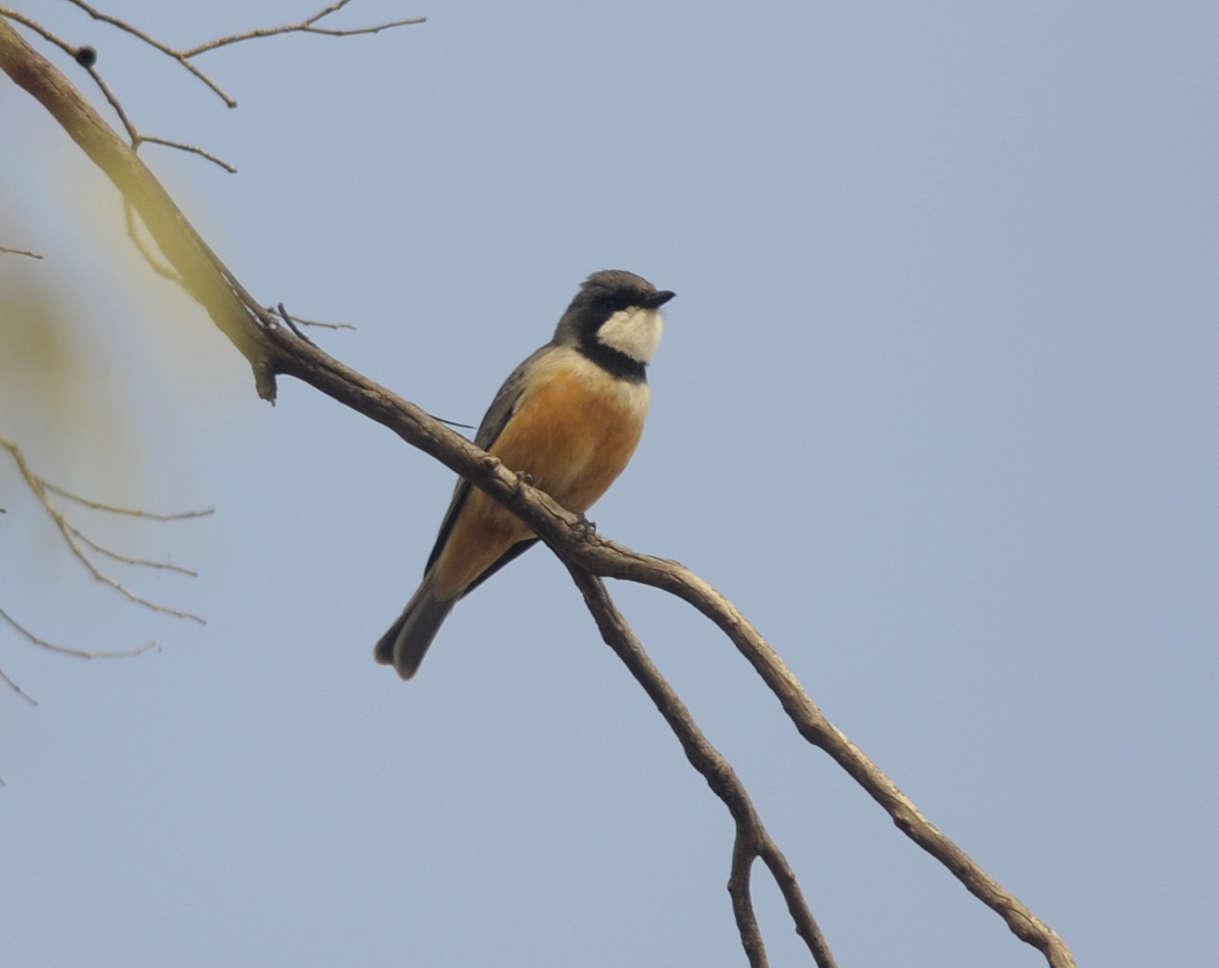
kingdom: Animalia
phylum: Chordata
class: Aves
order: Passeriformes
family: Pachycephalidae
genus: Pachycephala
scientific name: Pachycephala rufiventris
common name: Rufous whistler
